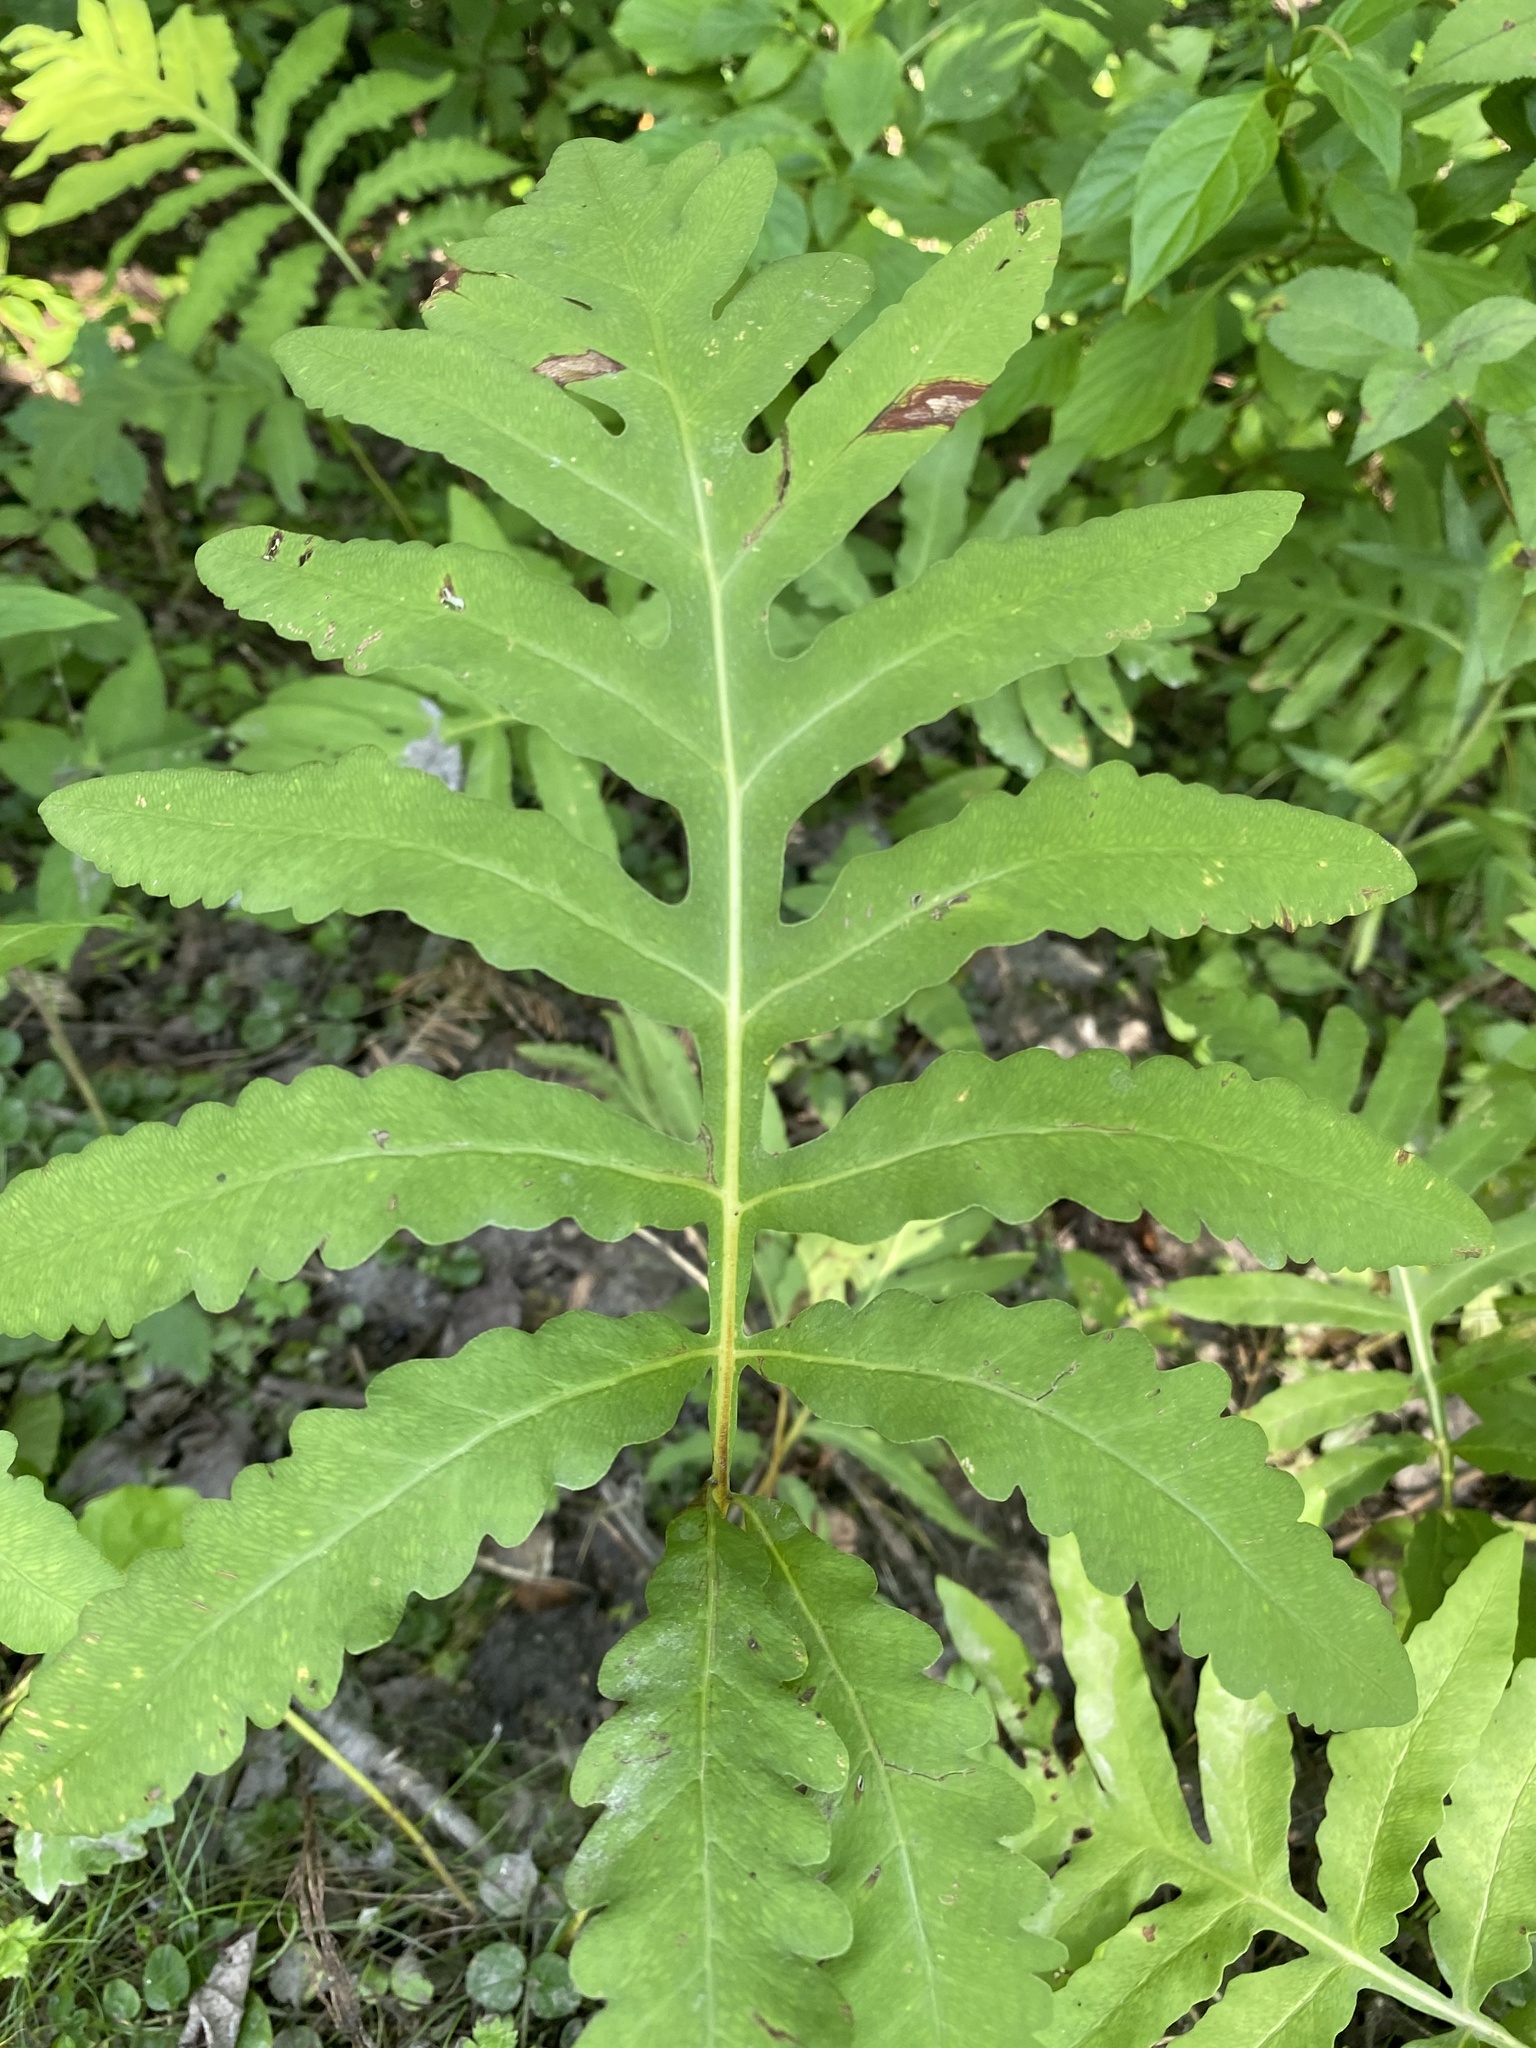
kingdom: Plantae
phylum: Tracheophyta
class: Polypodiopsida
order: Polypodiales
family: Onocleaceae
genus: Onoclea
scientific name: Onoclea sensibilis
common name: Sensitive fern
